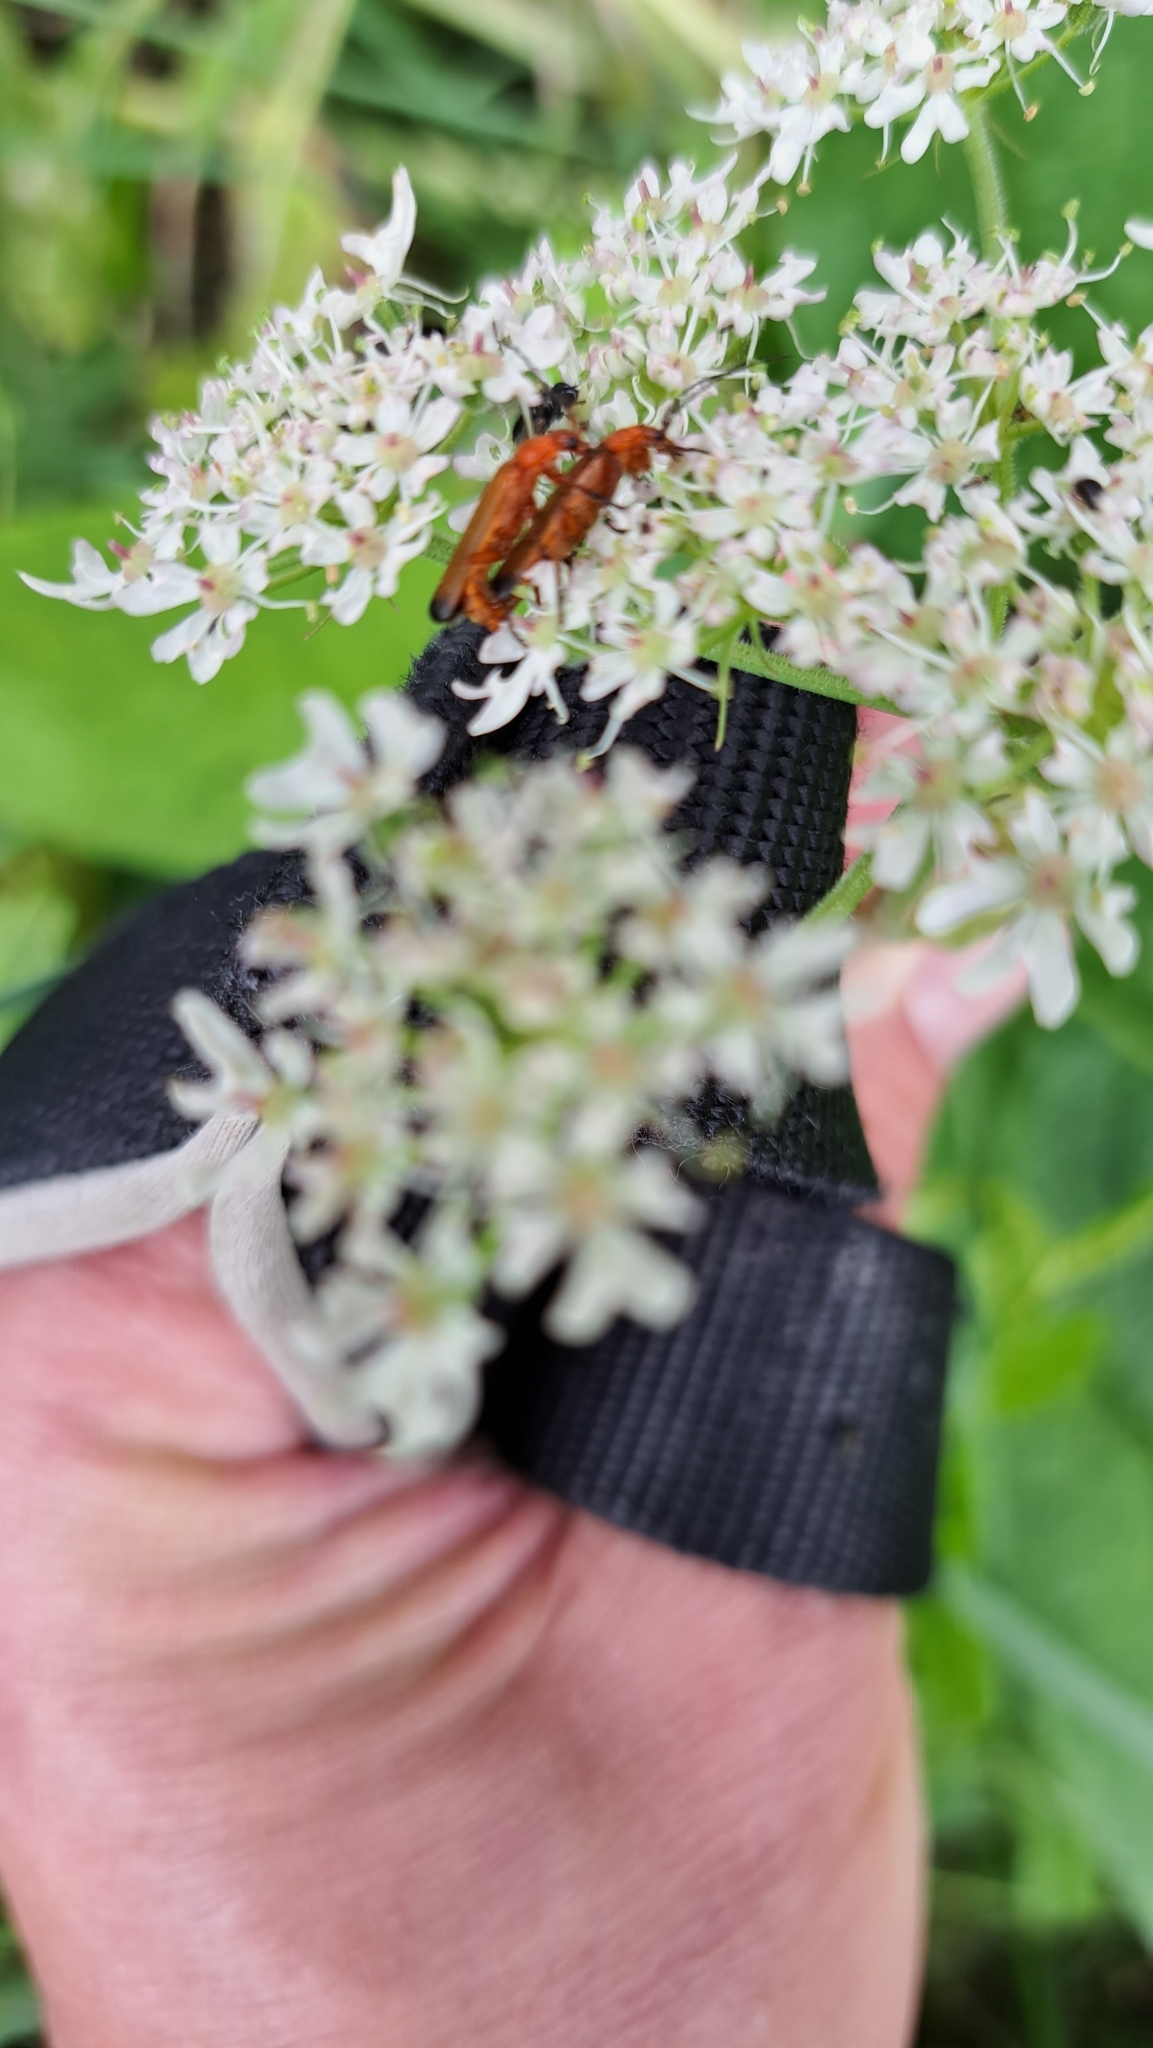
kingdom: Animalia
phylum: Arthropoda
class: Insecta
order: Coleoptera
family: Cantharidae
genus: Rhagonycha
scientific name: Rhagonycha fulva
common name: Common red soldier beetle
